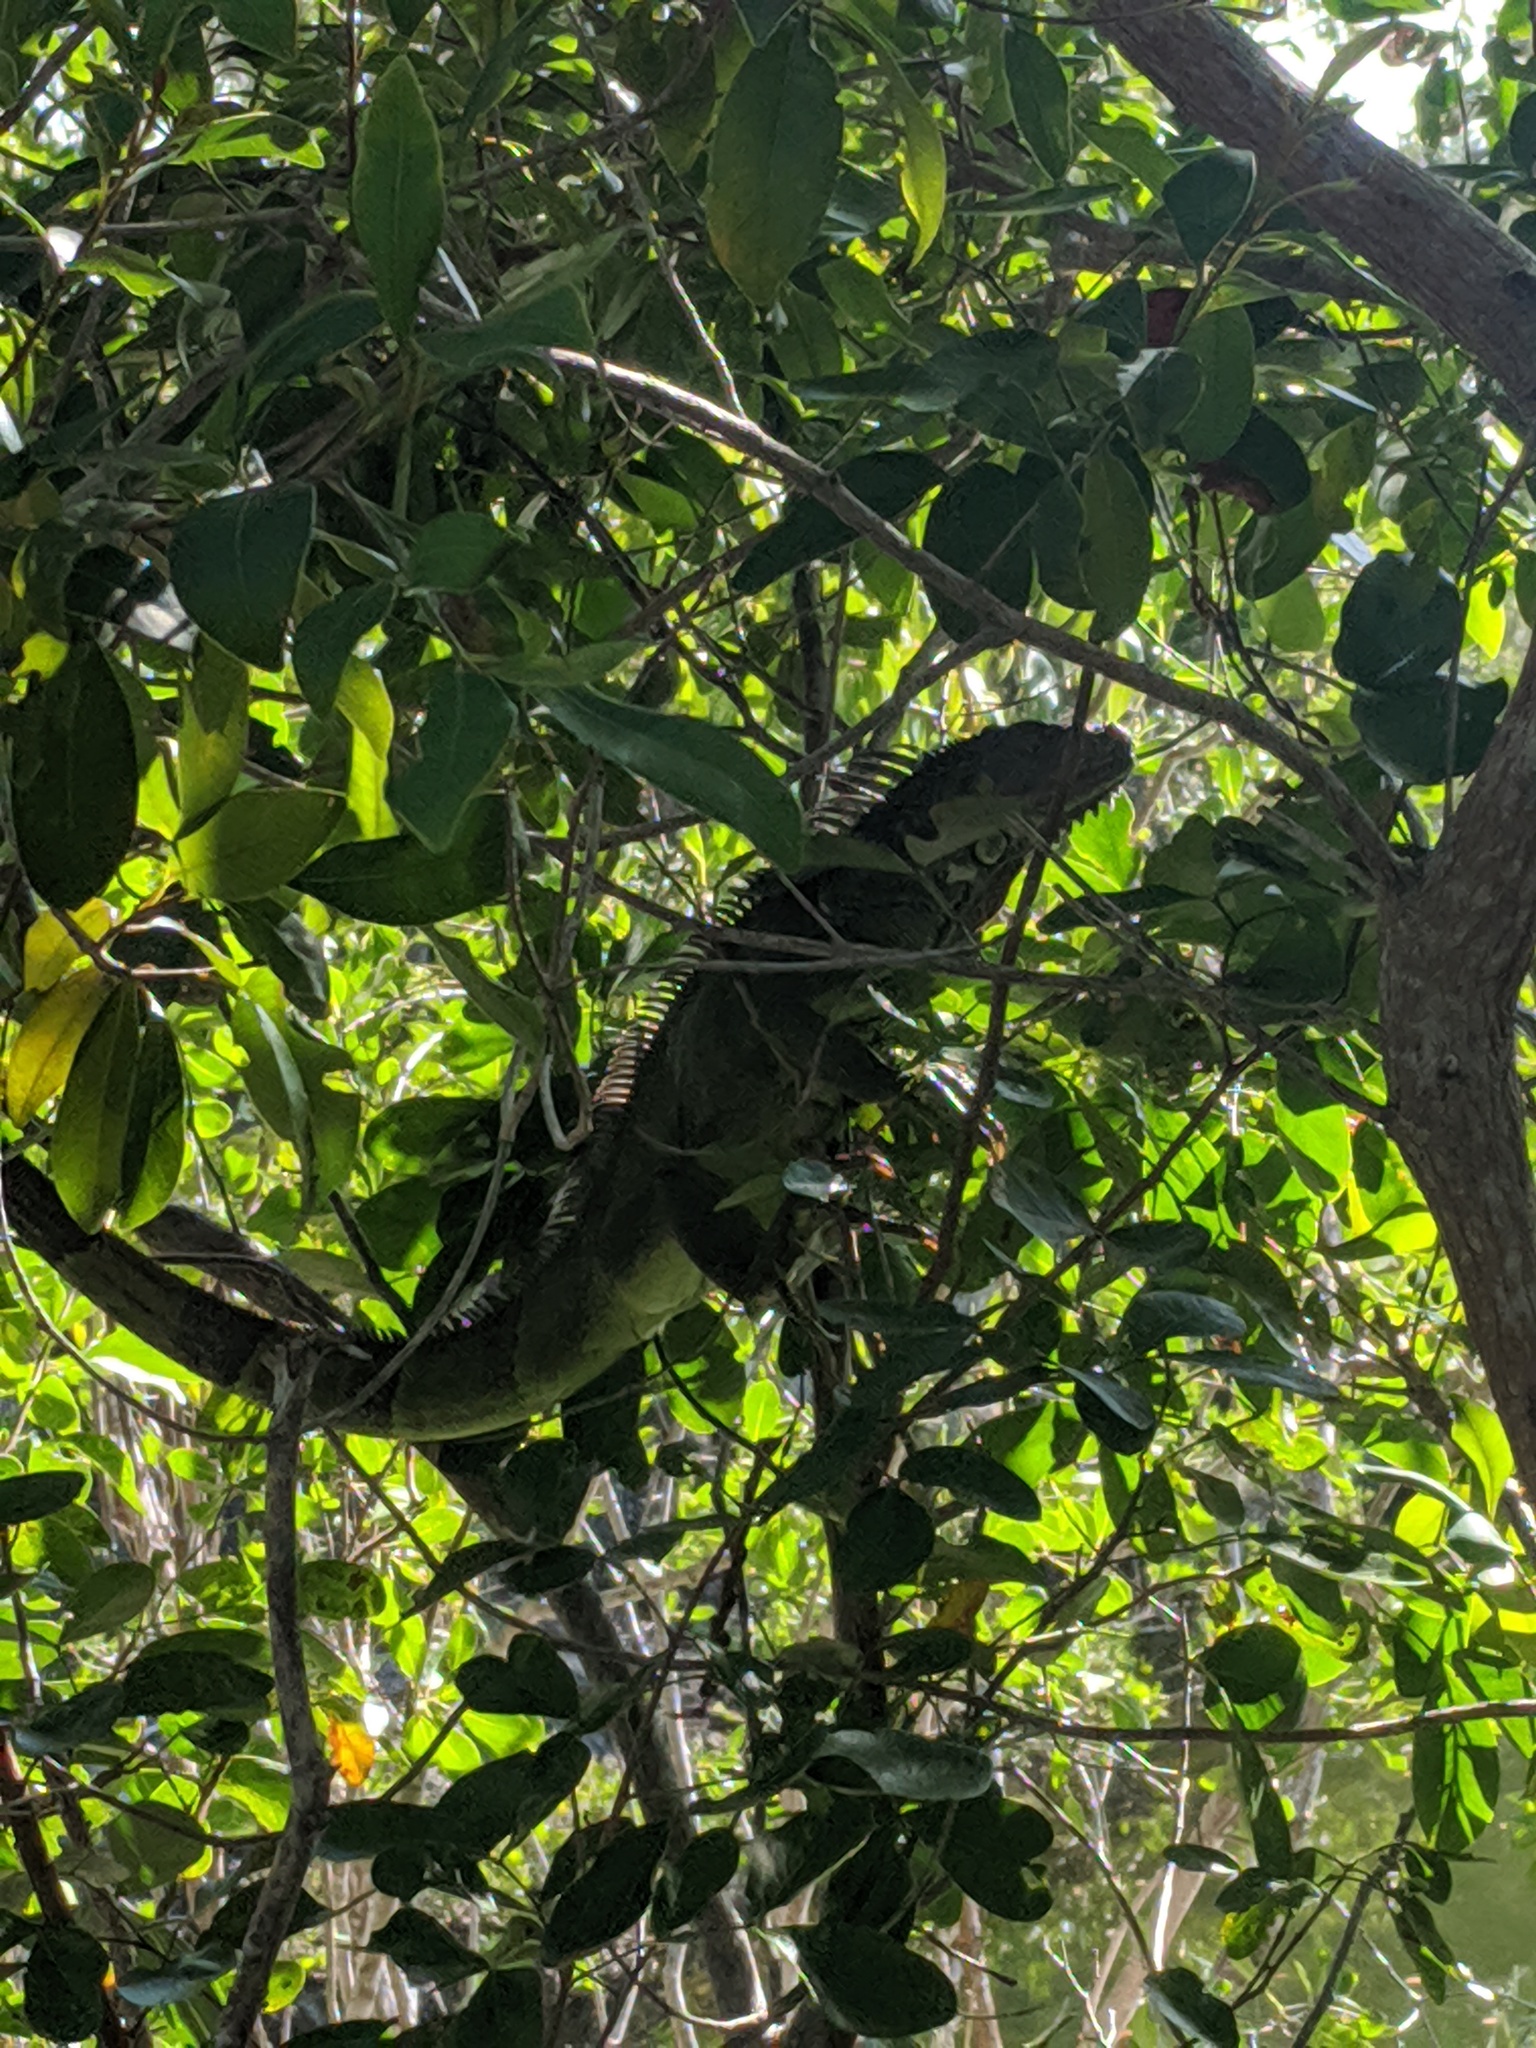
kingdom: Animalia
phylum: Chordata
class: Squamata
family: Iguanidae
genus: Iguana
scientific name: Iguana iguana
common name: Green iguana
